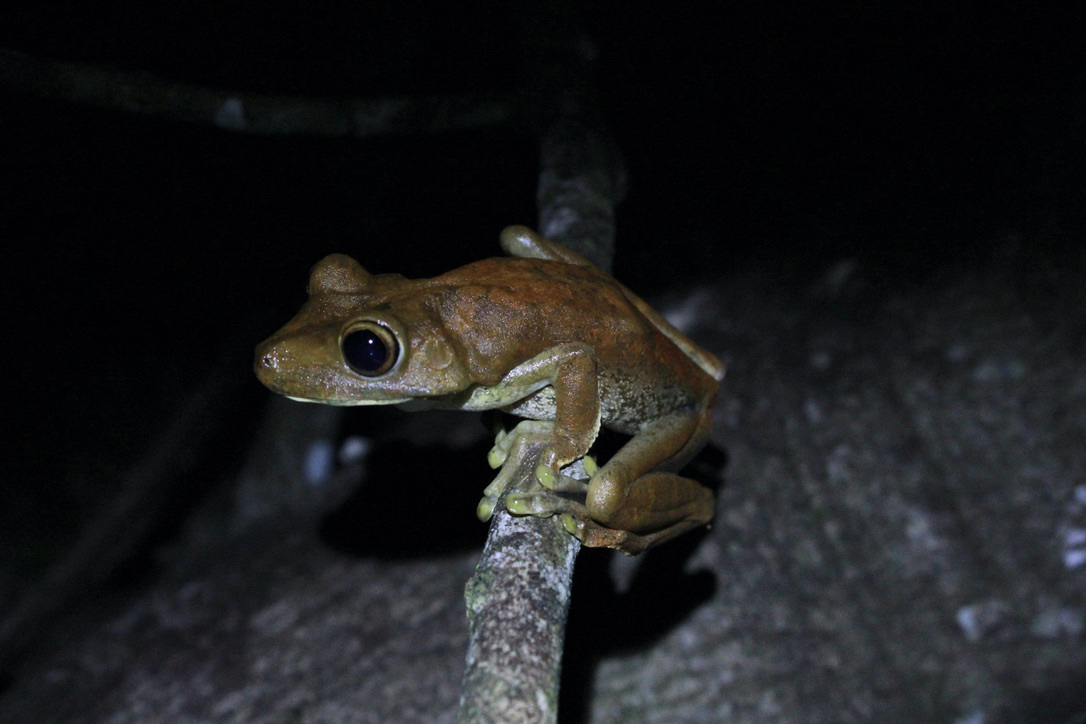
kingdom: Animalia
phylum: Chordata
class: Amphibia
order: Anura
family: Hylidae
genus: Boana
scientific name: Boana boans
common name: Giant gladiator treefrog
